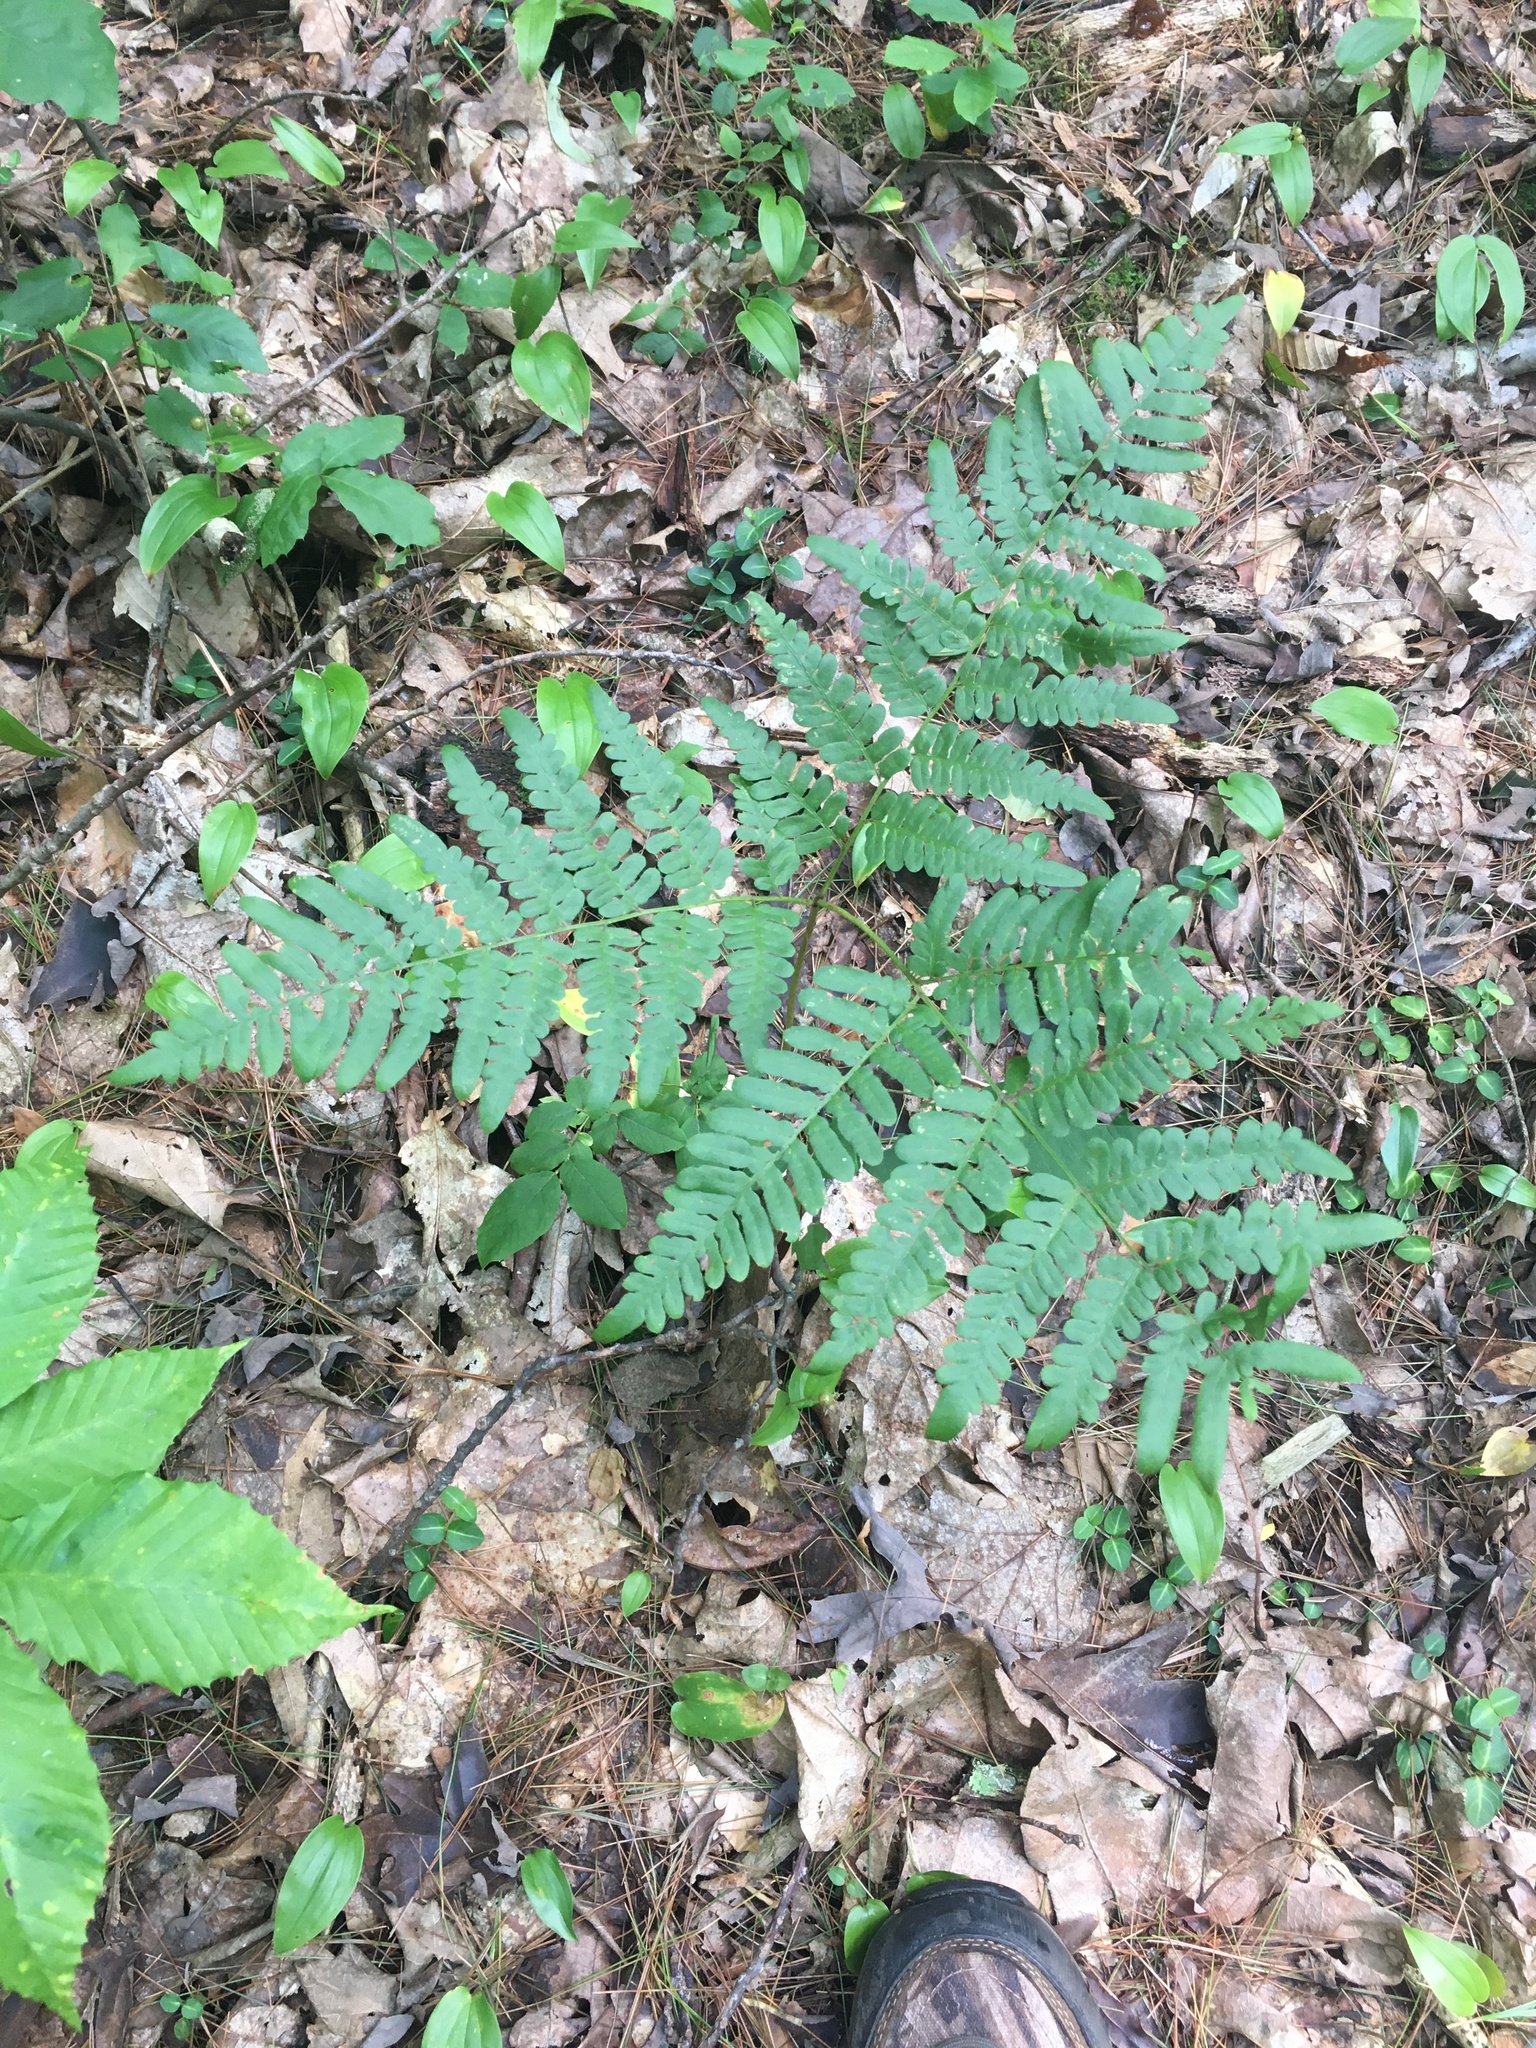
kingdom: Plantae
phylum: Tracheophyta
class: Polypodiopsida
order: Polypodiales
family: Dennstaedtiaceae
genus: Pteridium
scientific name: Pteridium aquilinum
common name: Bracken
